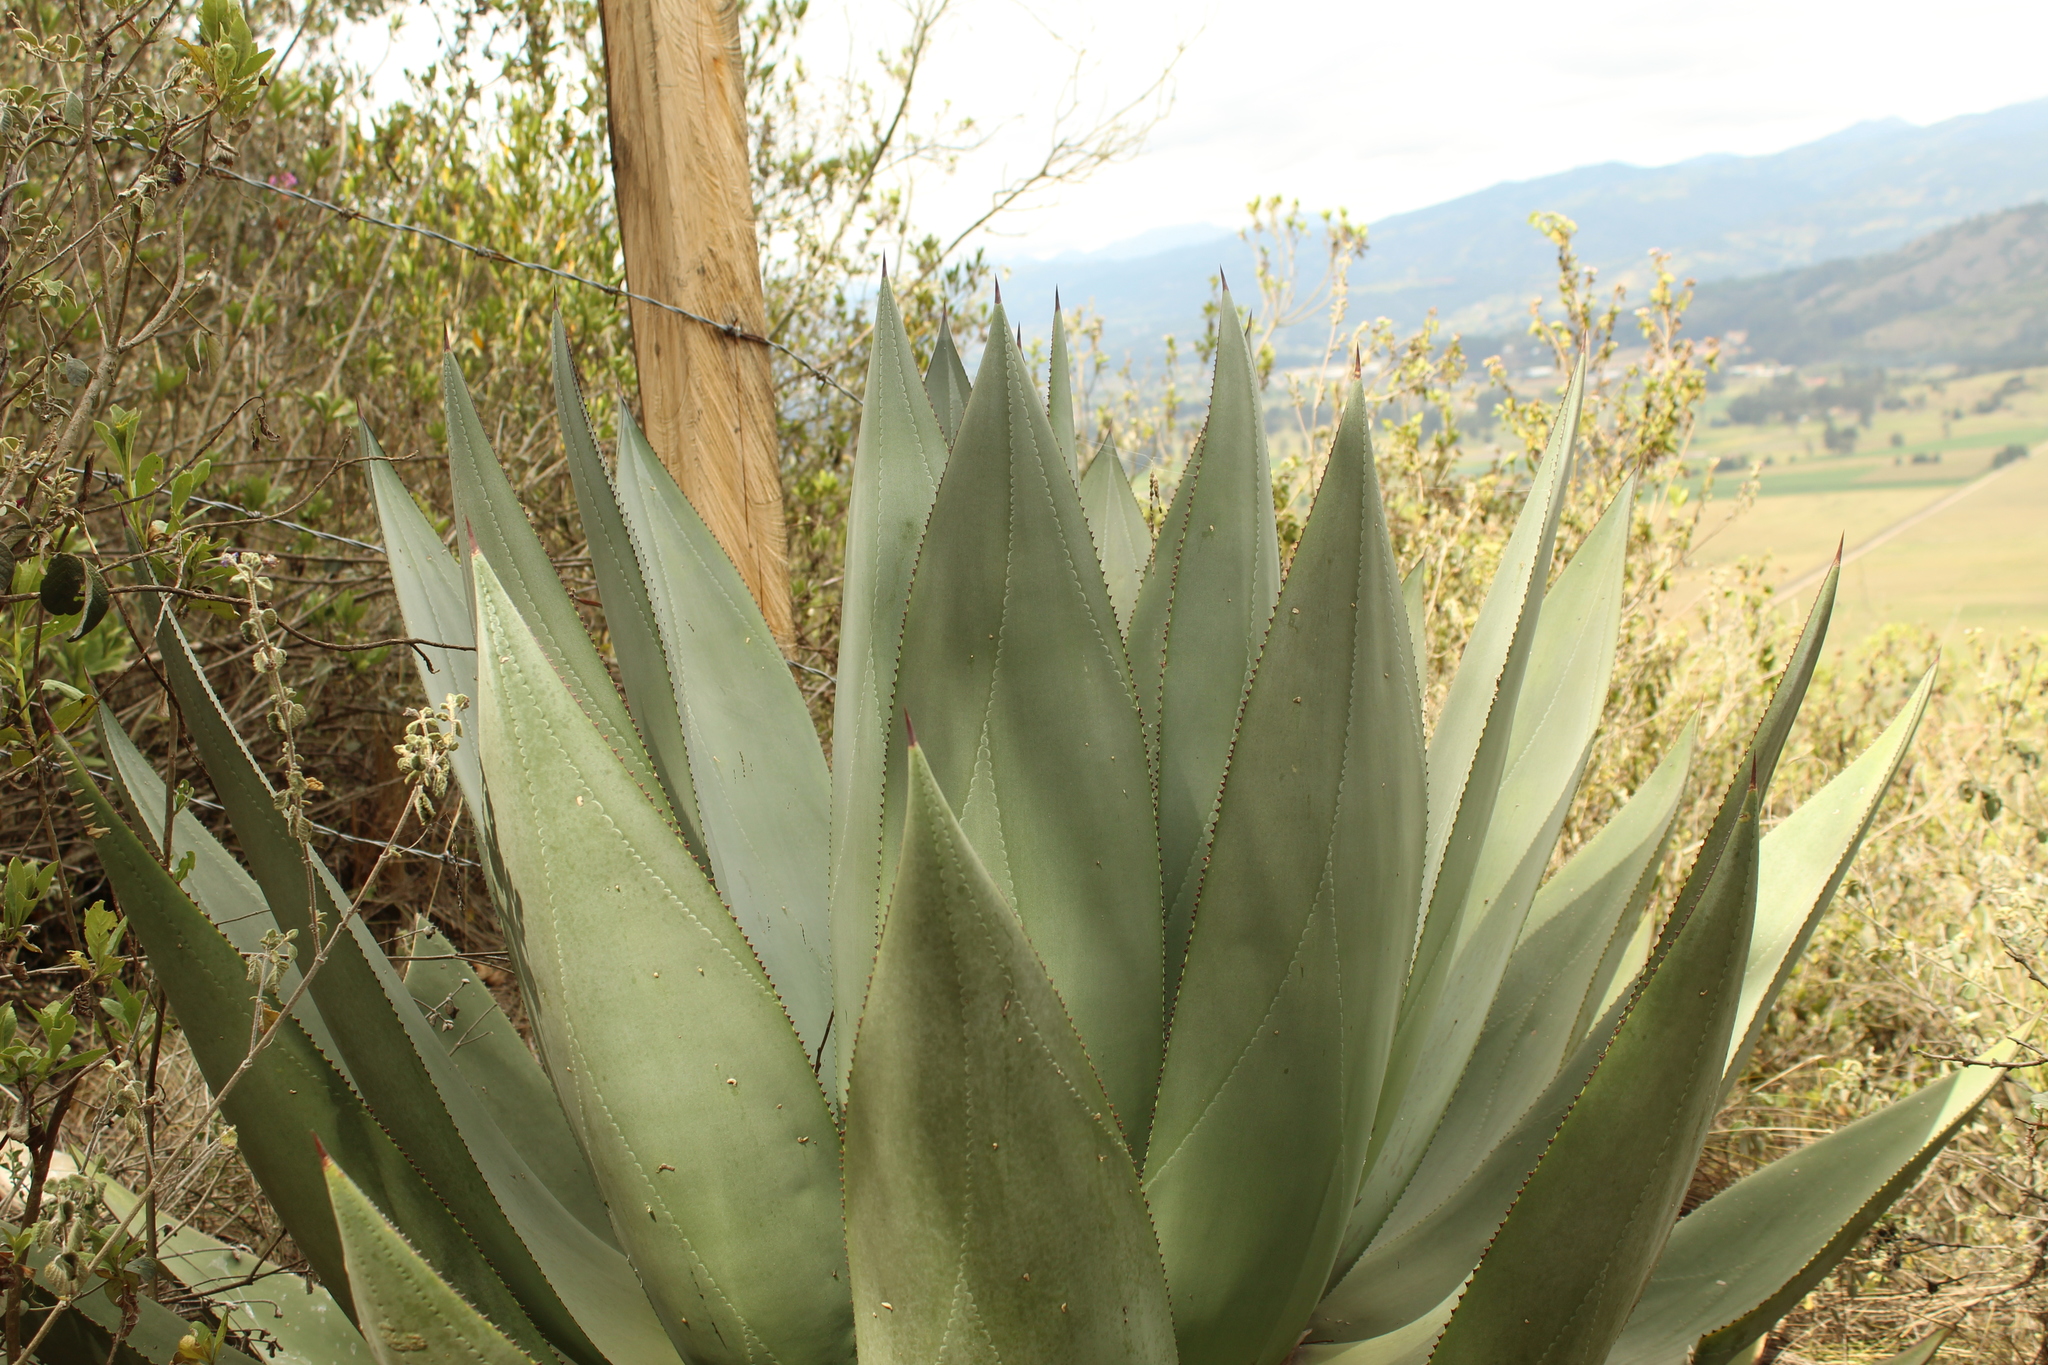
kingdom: Plantae
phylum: Tracheophyta
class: Liliopsida
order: Asparagales
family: Asparagaceae
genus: Agave
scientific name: Agave cundinamarcensis
